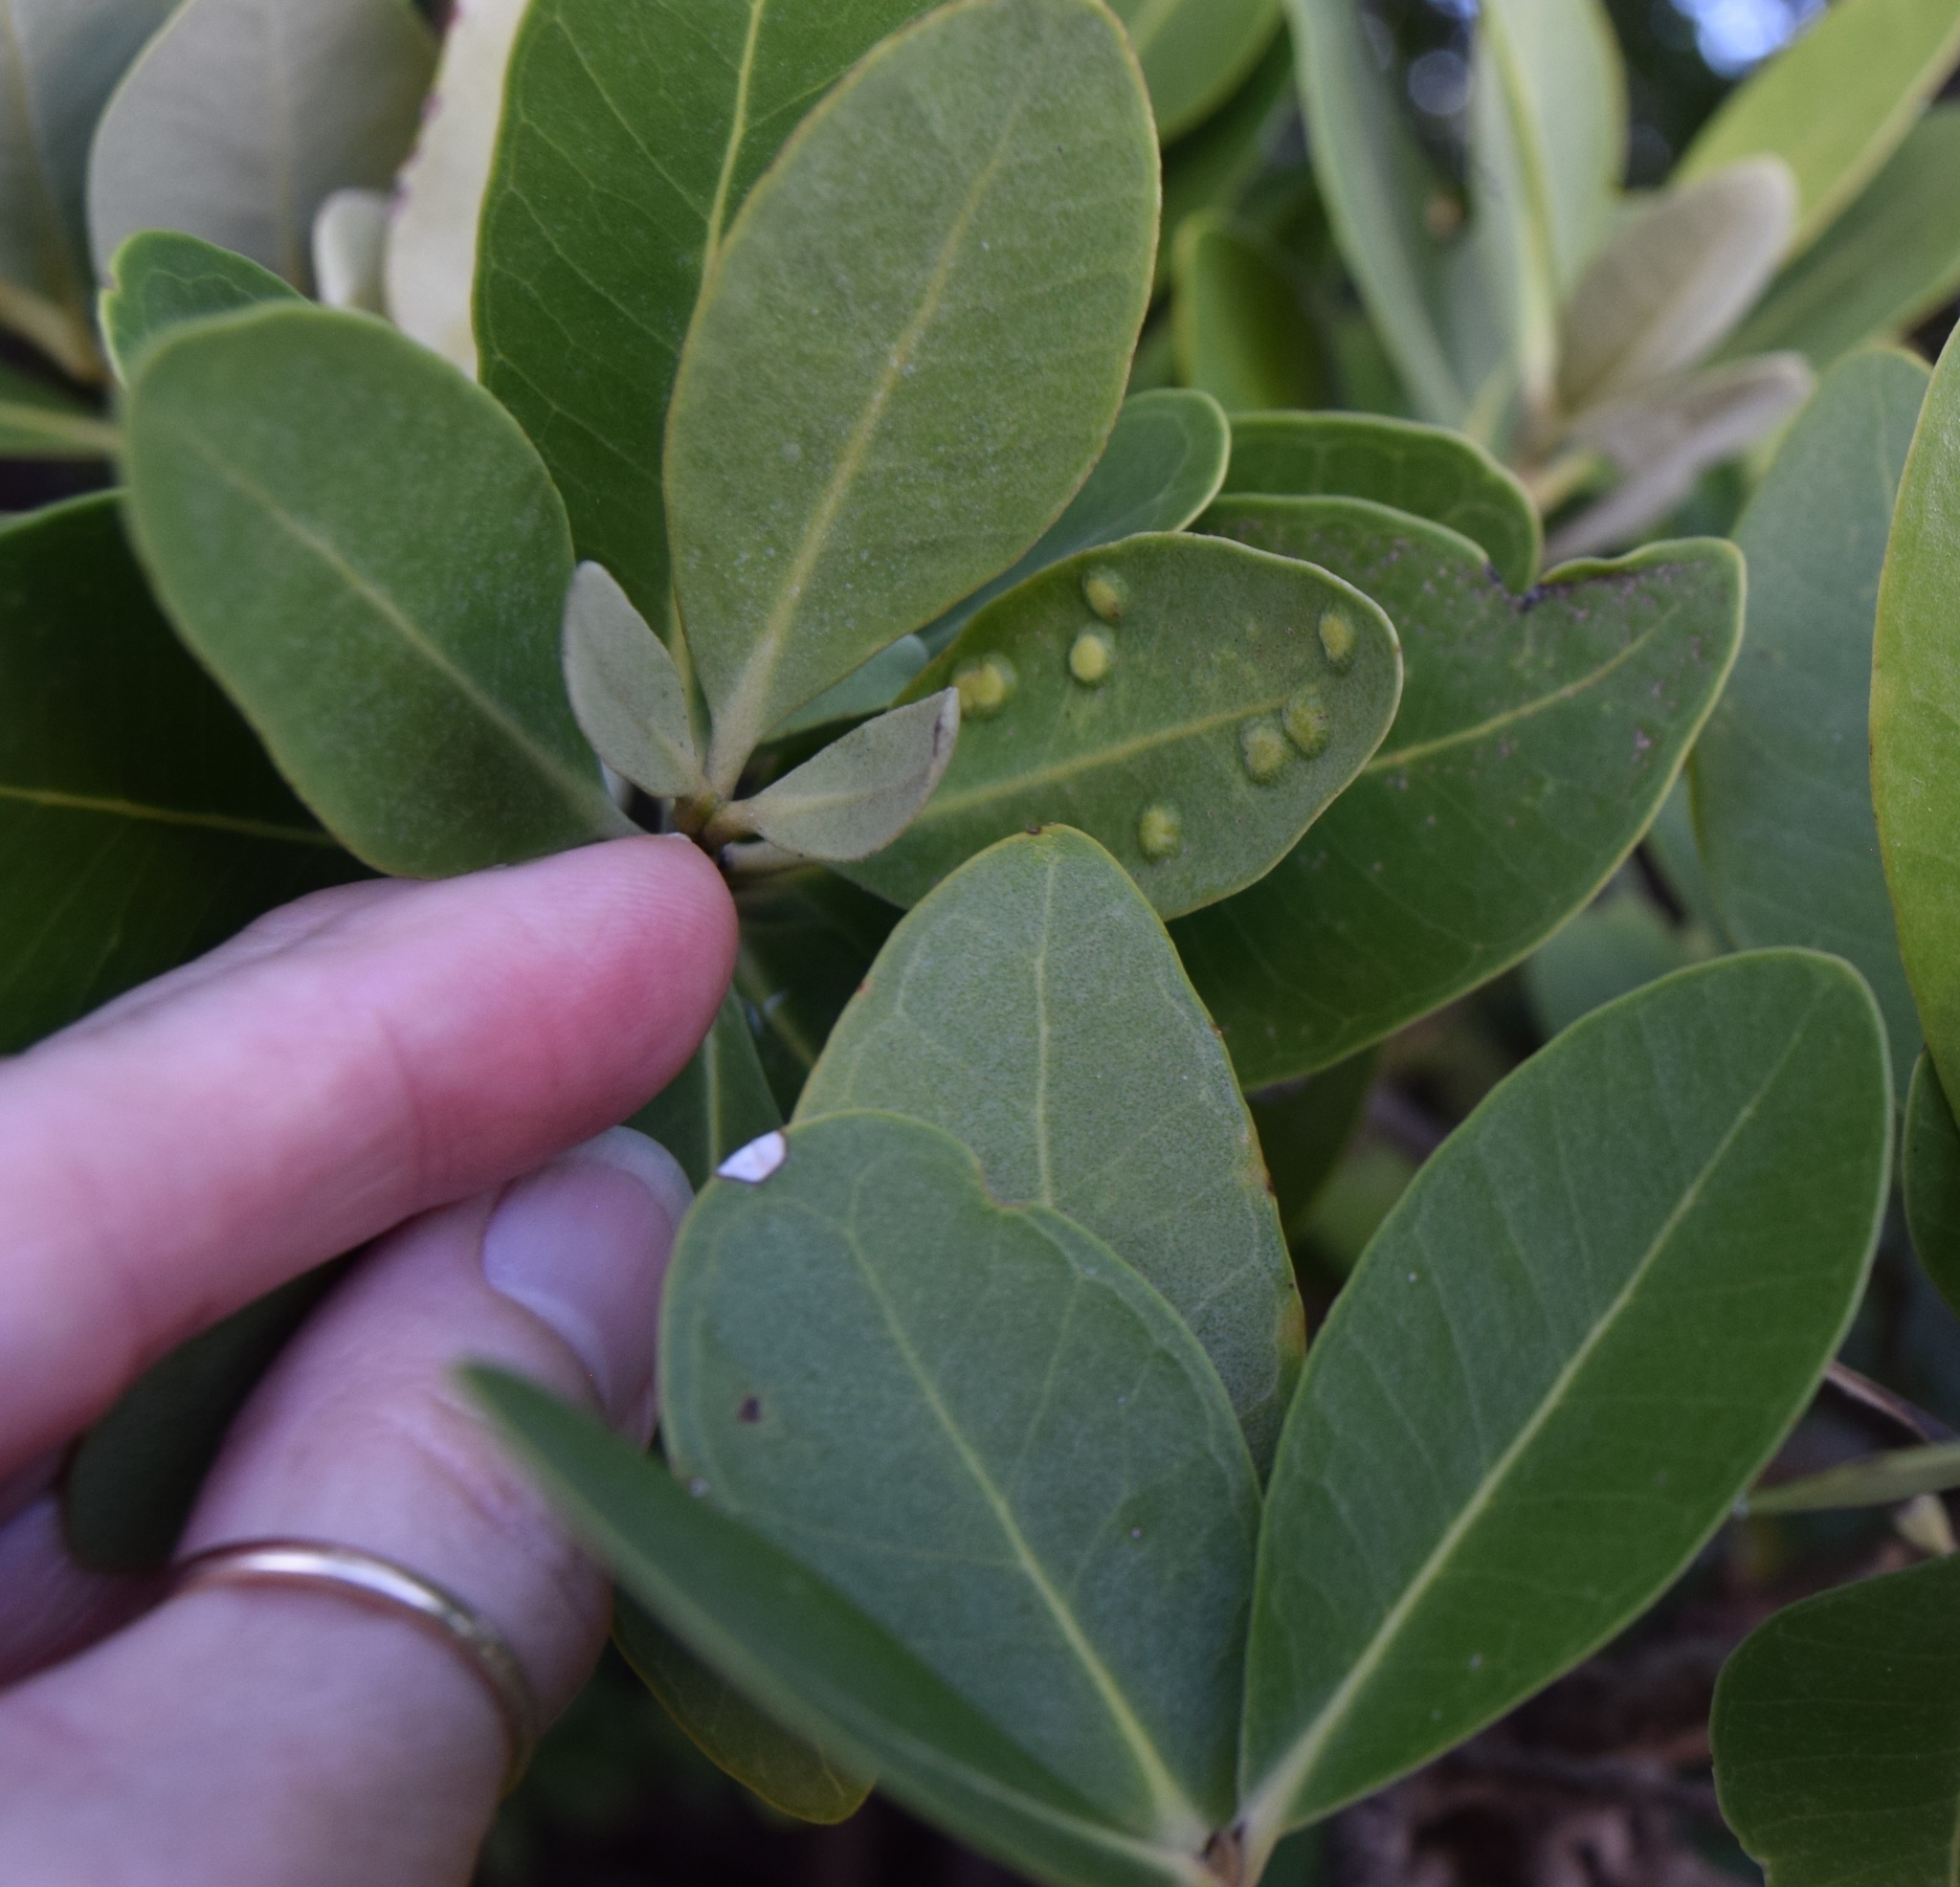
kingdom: Animalia
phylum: Arthropoda
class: Insecta
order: Diptera
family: Cecidomyiidae
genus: Cecidomyia
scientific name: Cecidomyia avicenniae
